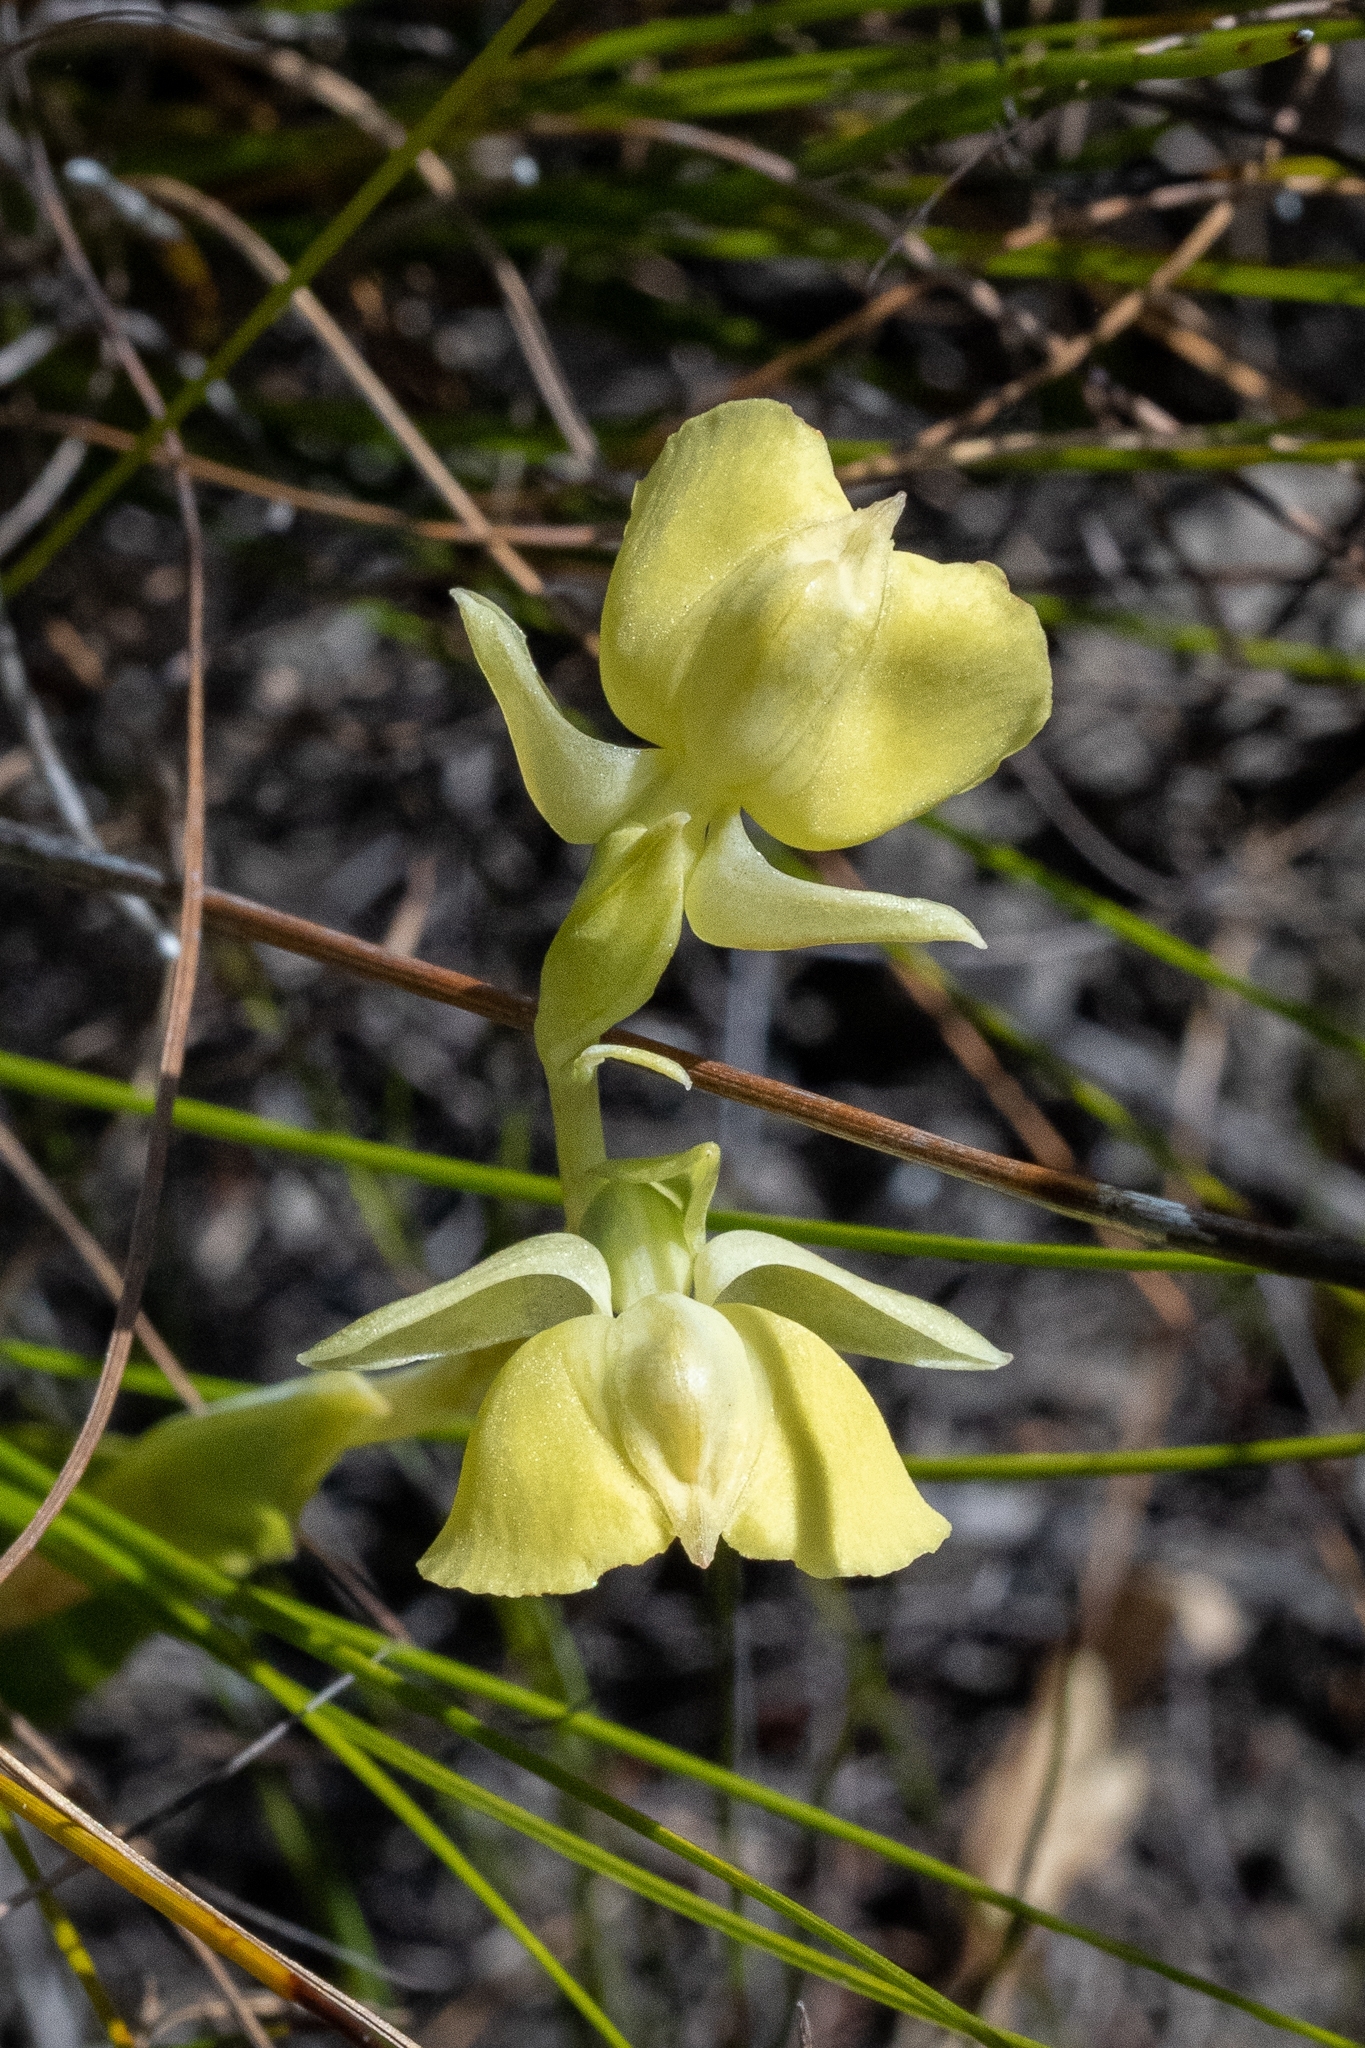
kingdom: Plantae
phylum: Tracheophyta
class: Liliopsida
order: Asparagales
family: Orchidaceae
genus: Pterygodium
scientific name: Pterygodium catholicum
